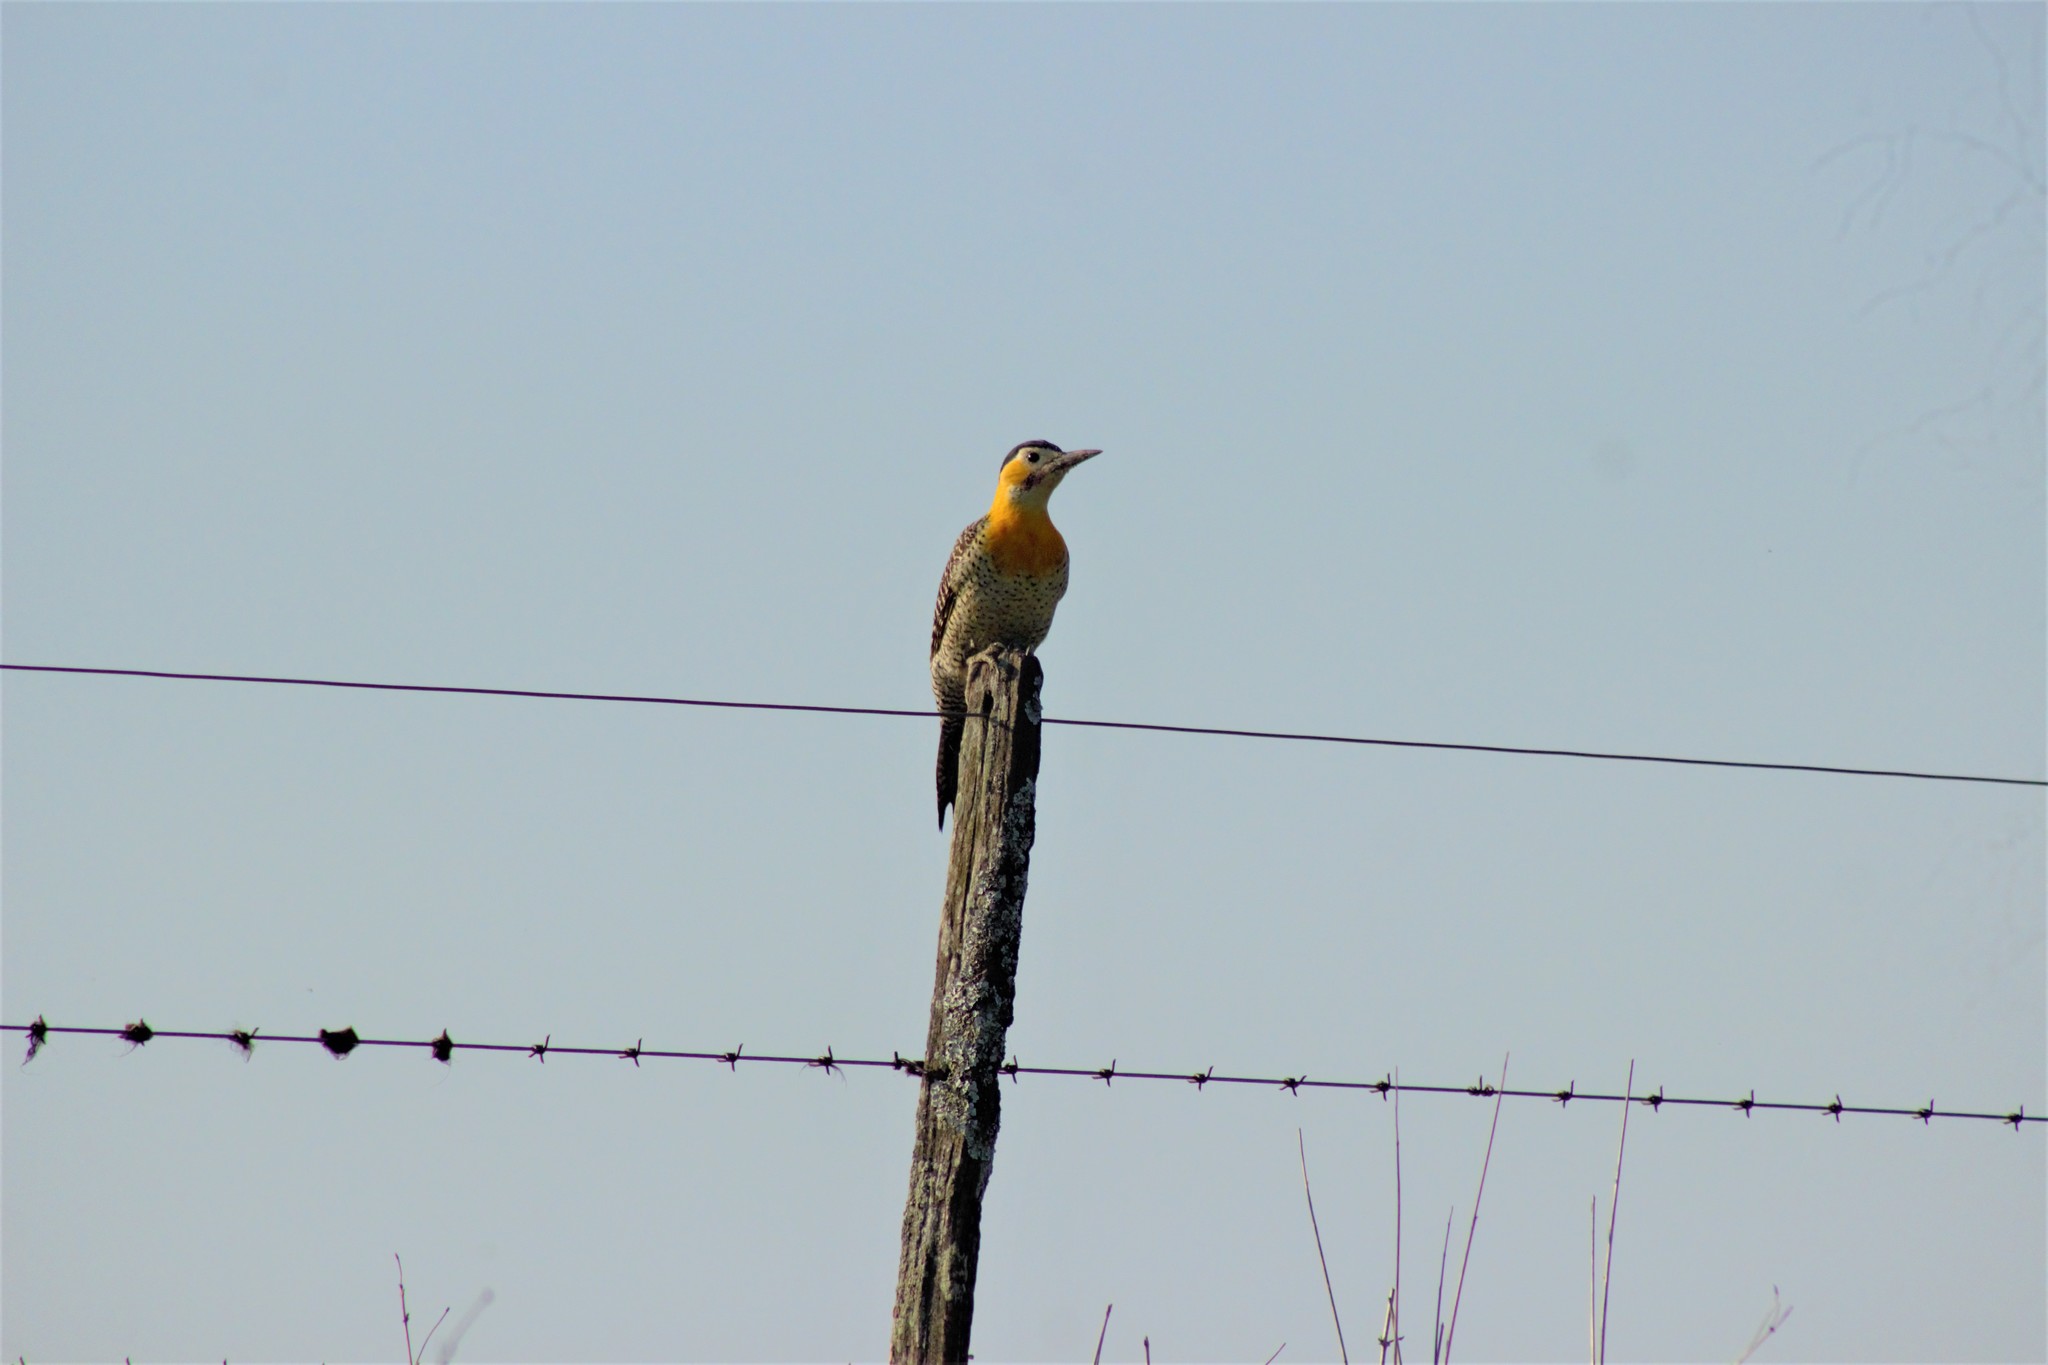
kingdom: Animalia
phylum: Chordata
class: Aves
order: Piciformes
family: Picidae
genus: Colaptes
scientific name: Colaptes campestris
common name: Campo flicker
